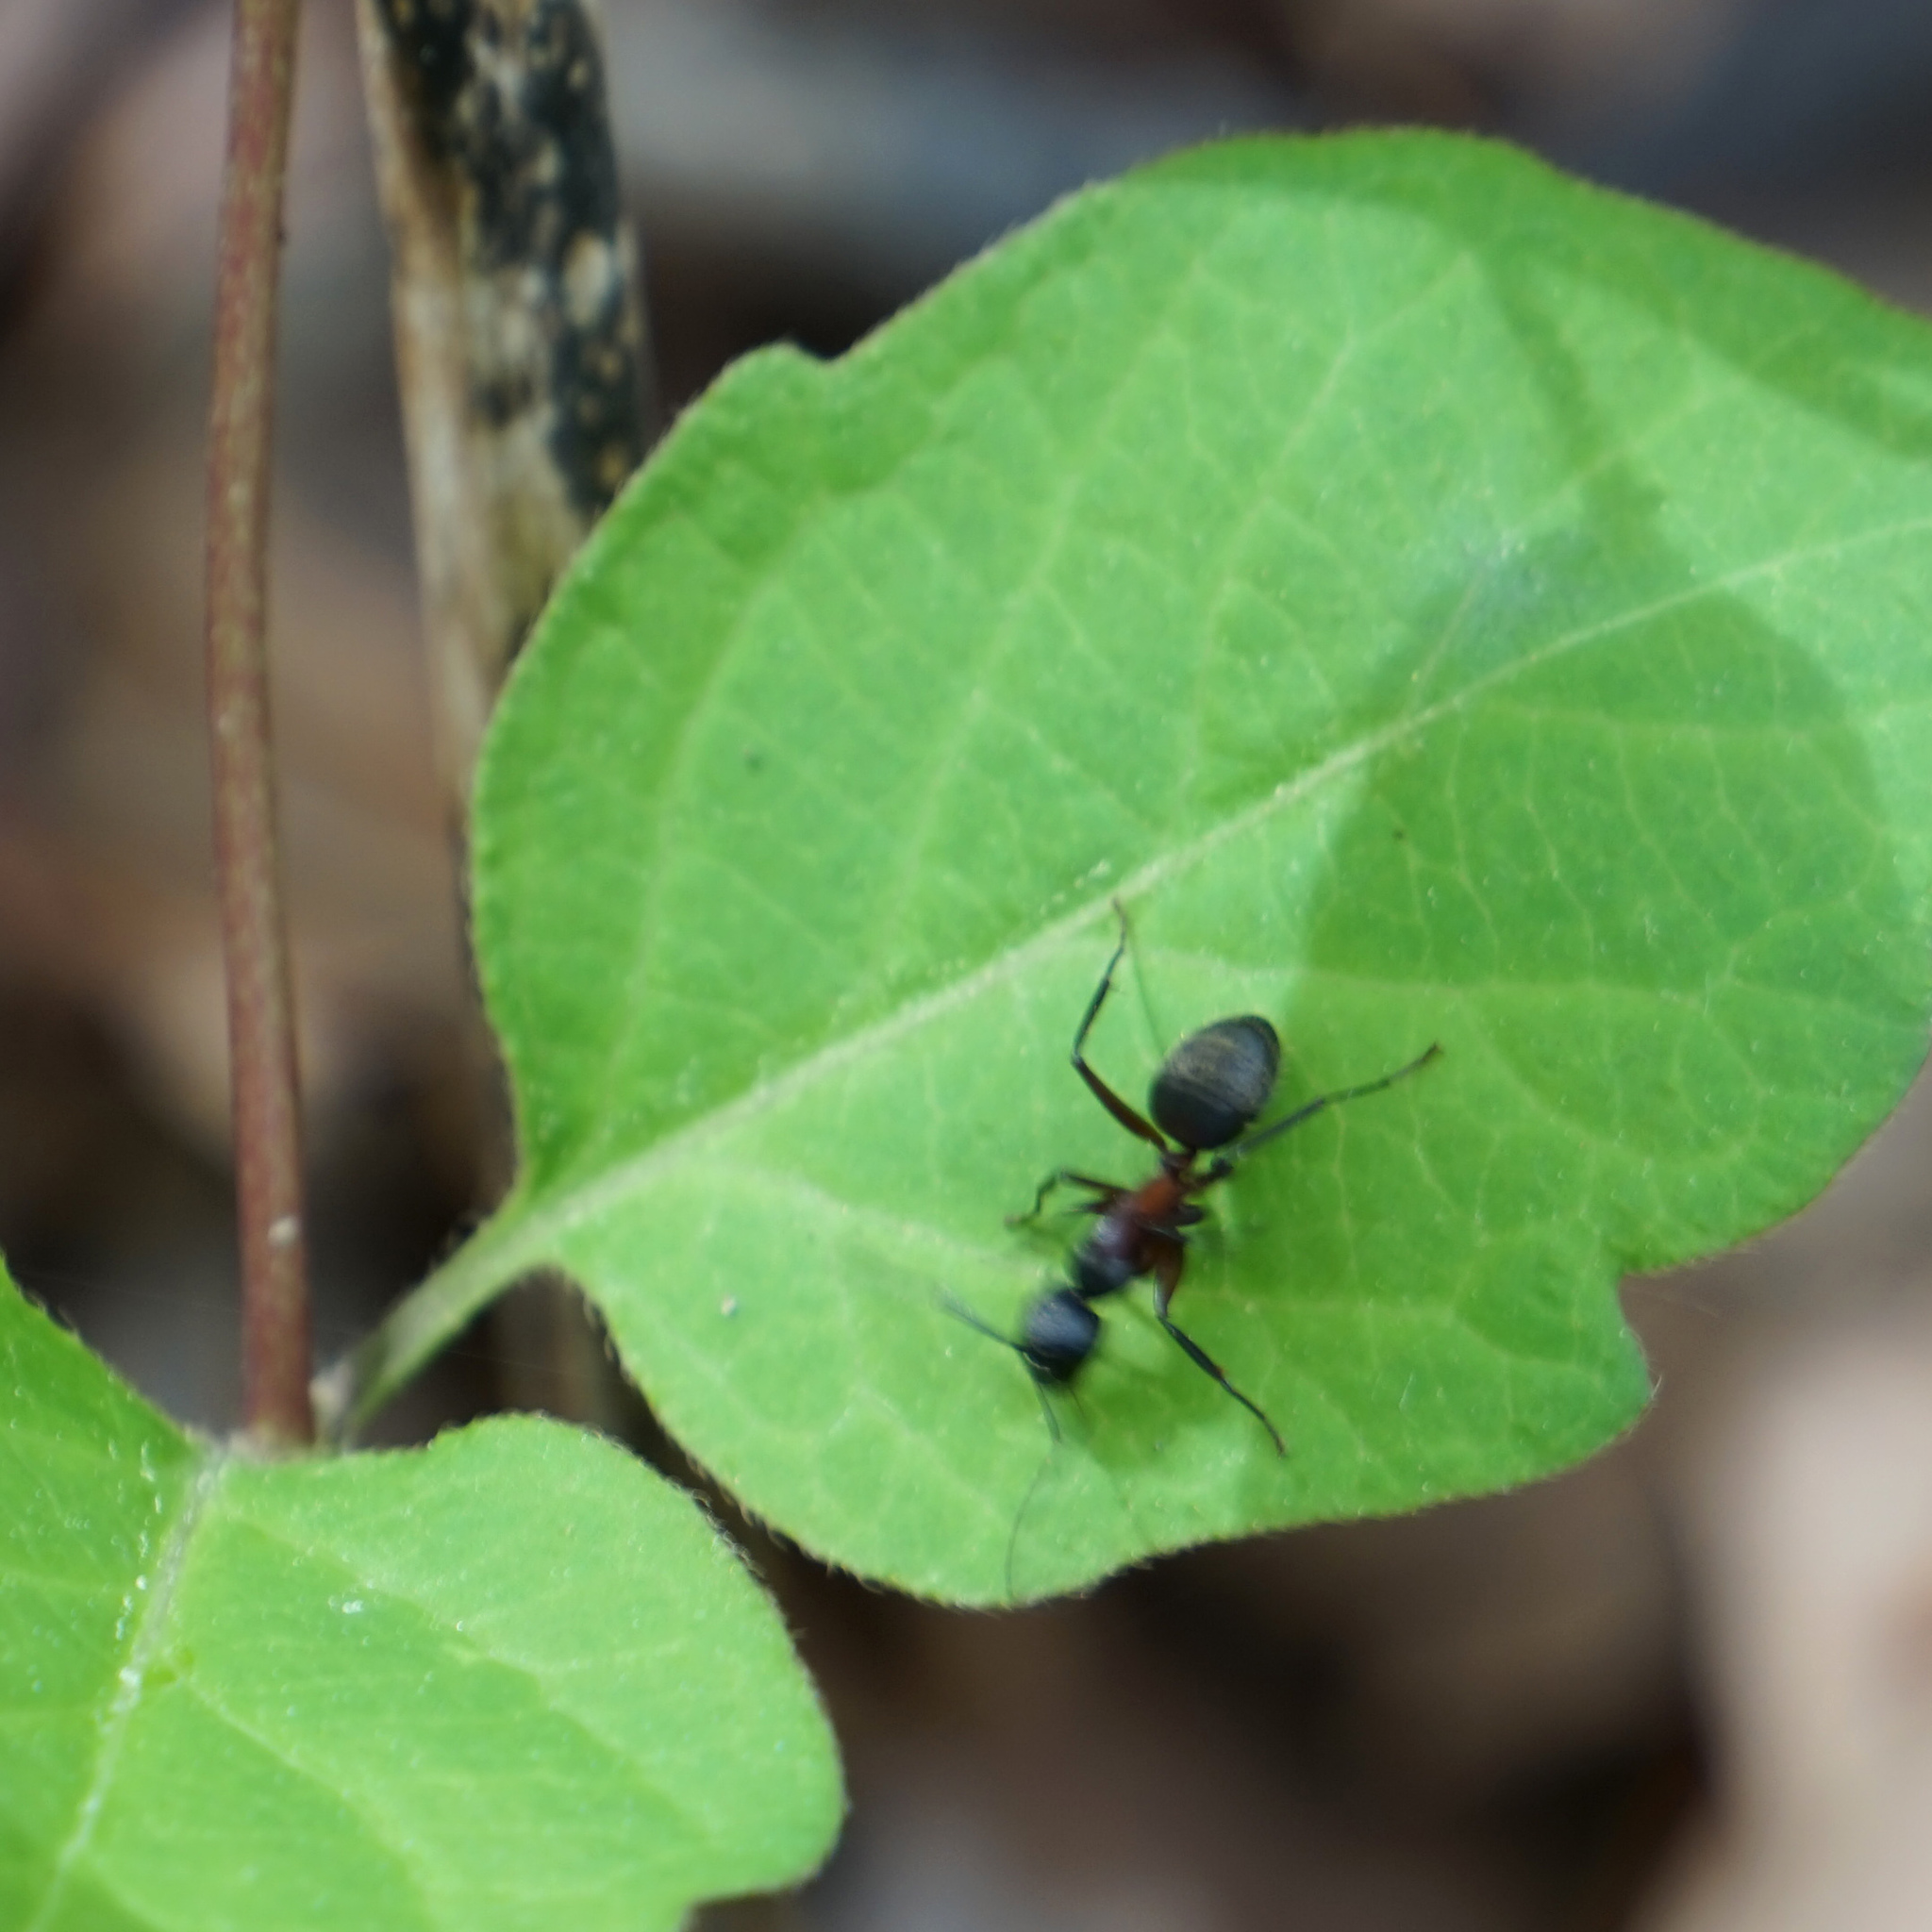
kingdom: Animalia
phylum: Arthropoda
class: Insecta
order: Hymenoptera
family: Formicidae
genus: Camponotus
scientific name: Camponotus chromaiodes
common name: Red carpenter ant
